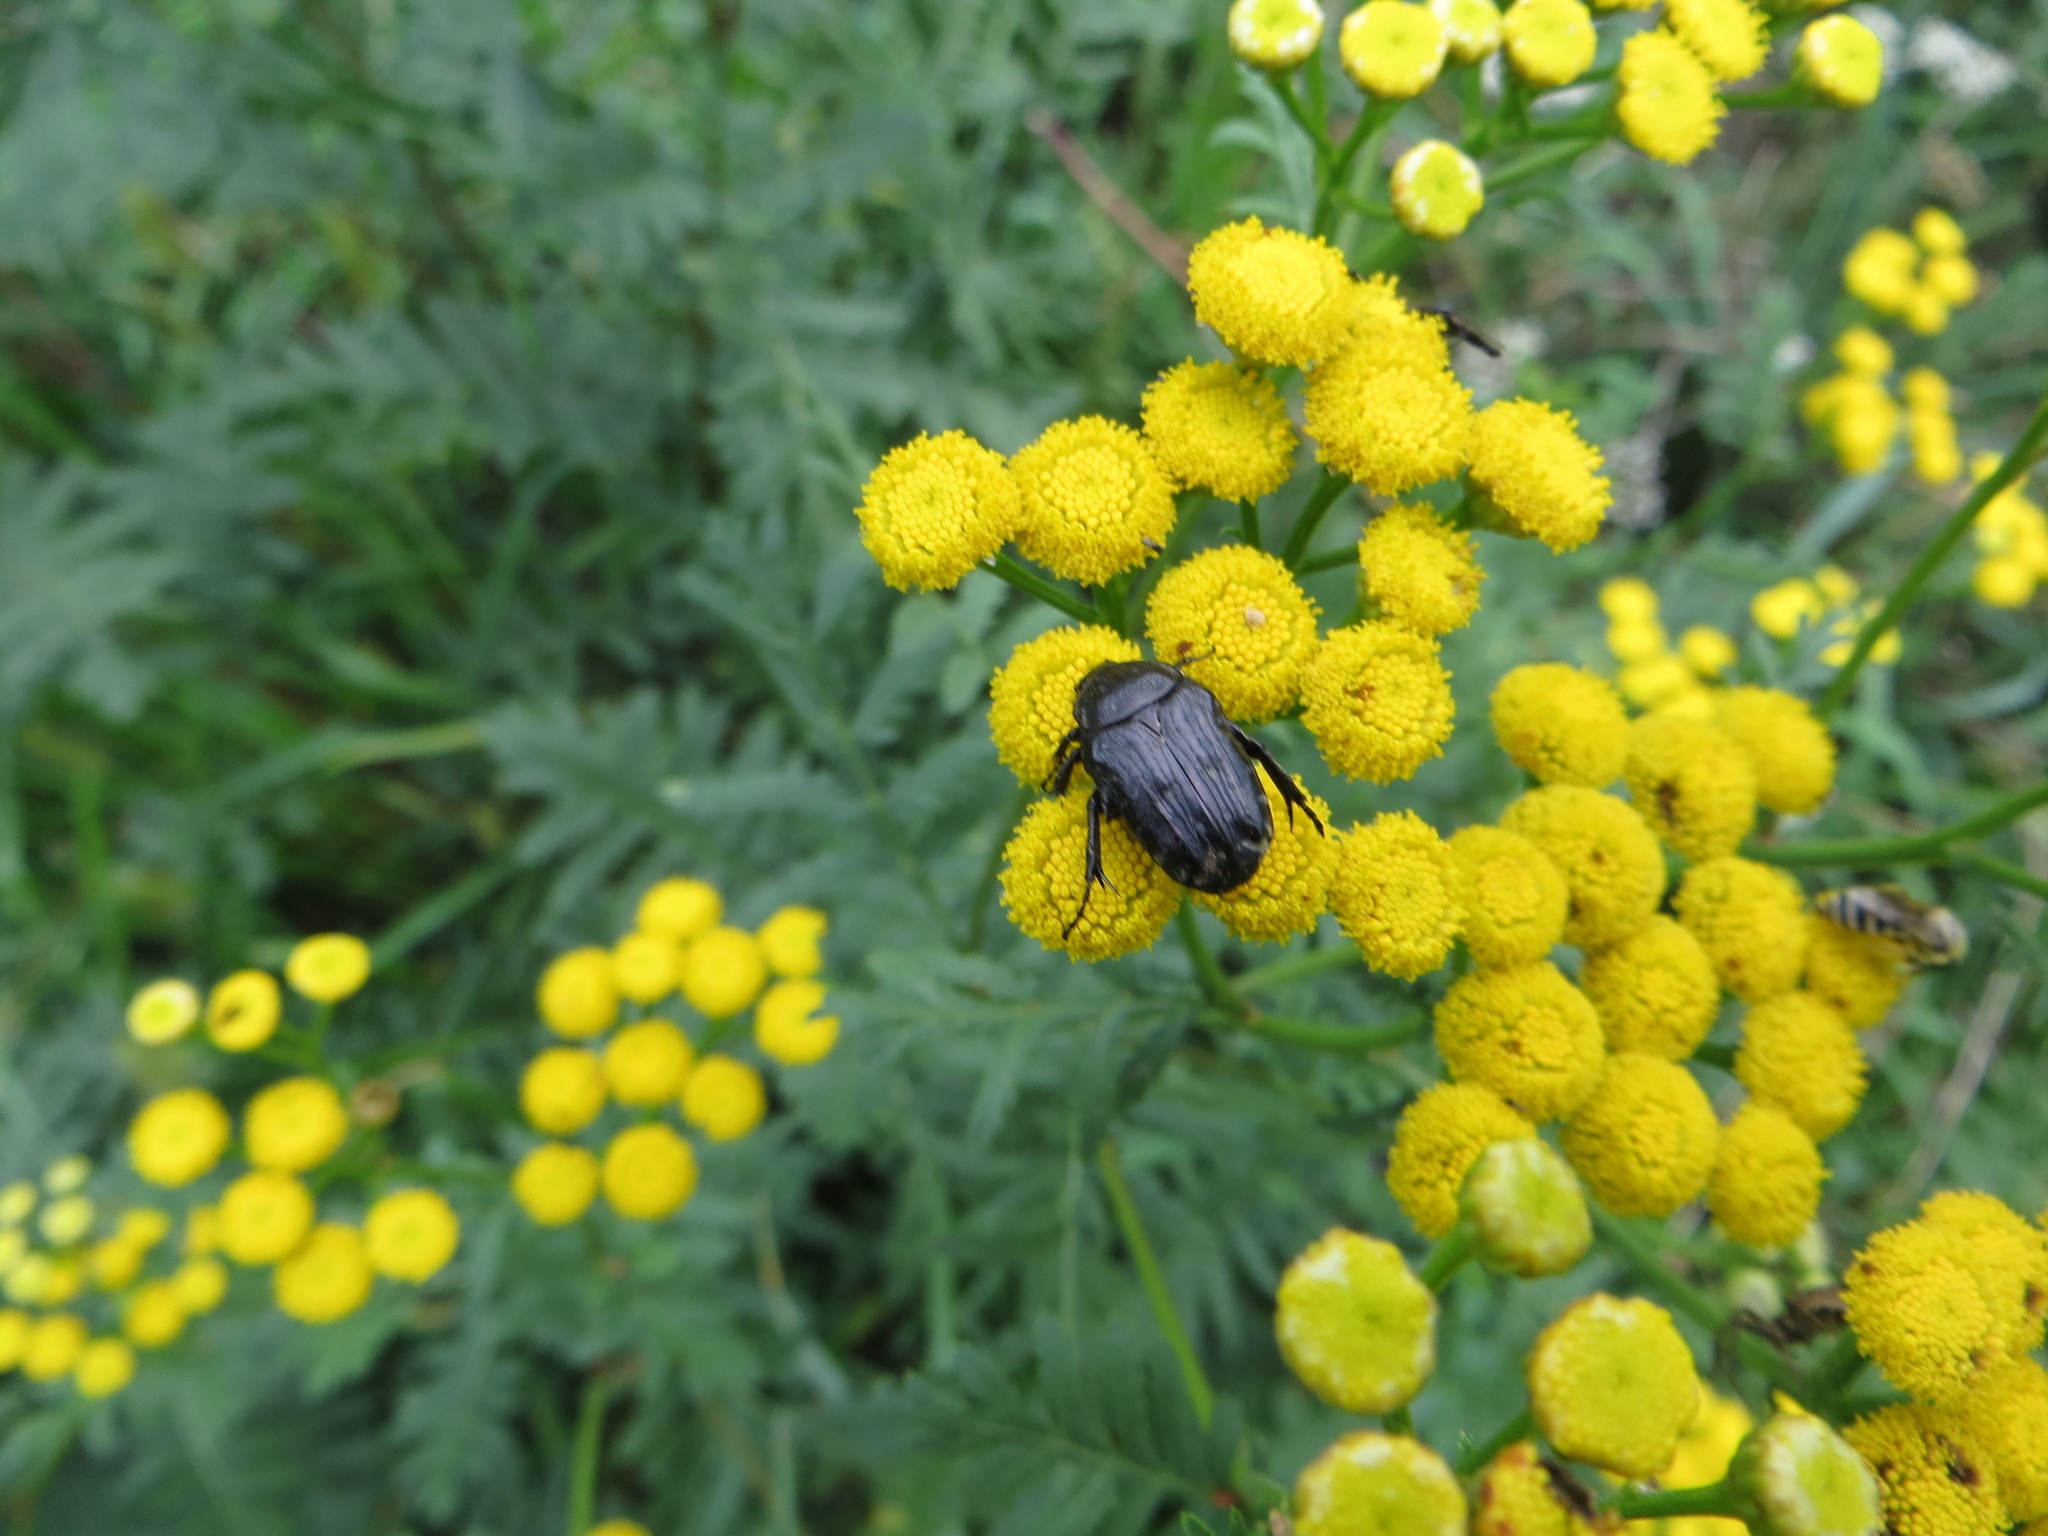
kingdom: Animalia
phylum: Arthropoda
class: Insecta
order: Coleoptera
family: Scarabaeidae
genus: Oxythyrea
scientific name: Oxythyrea funesta
